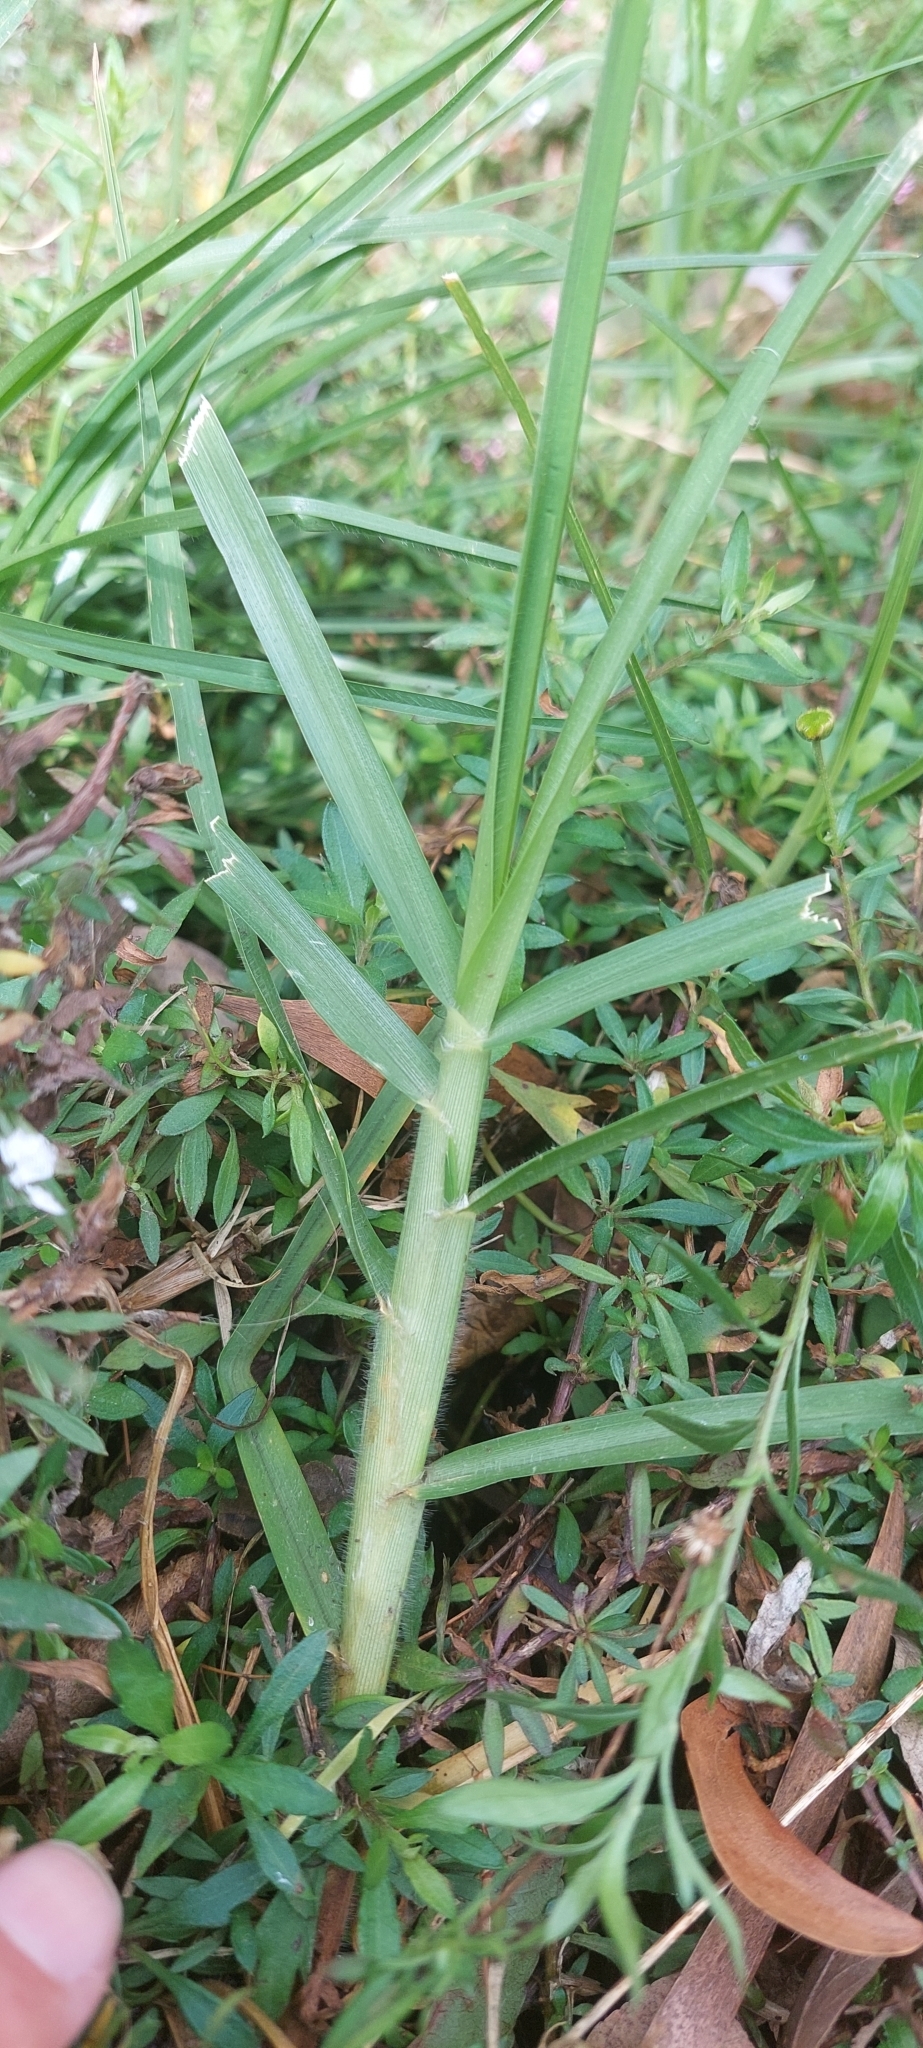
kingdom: Plantae
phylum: Tracheophyta
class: Liliopsida
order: Poales
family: Poaceae
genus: Cenchrus
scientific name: Cenchrus clandestinus
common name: Kikuyugrass
